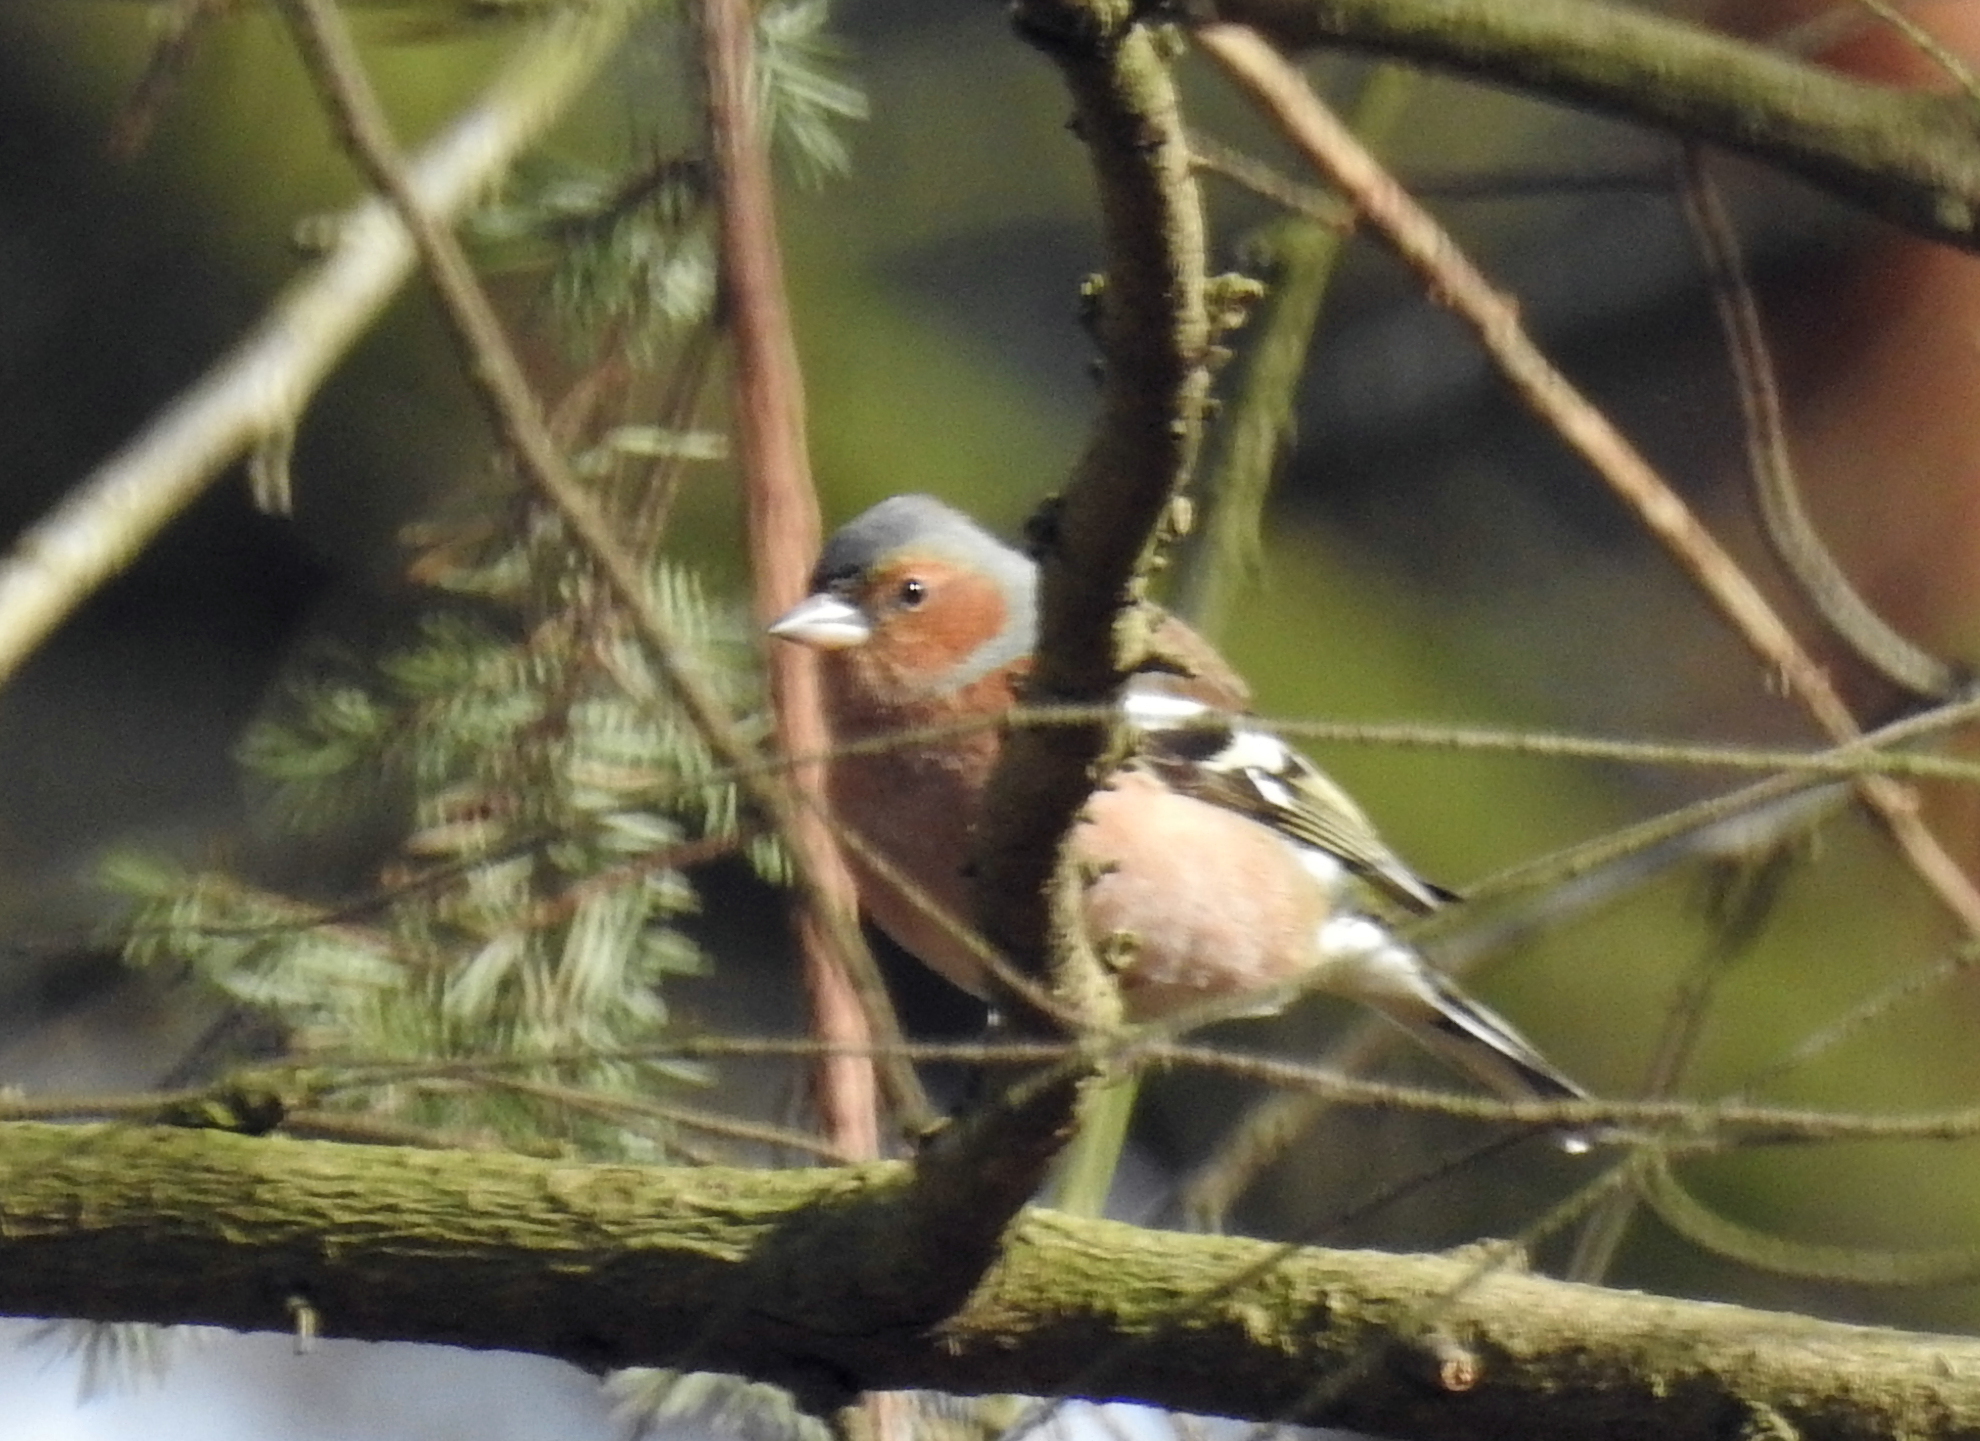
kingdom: Animalia
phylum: Chordata
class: Aves
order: Passeriformes
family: Fringillidae
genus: Fringilla
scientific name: Fringilla coelebs
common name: Common chaffinch
